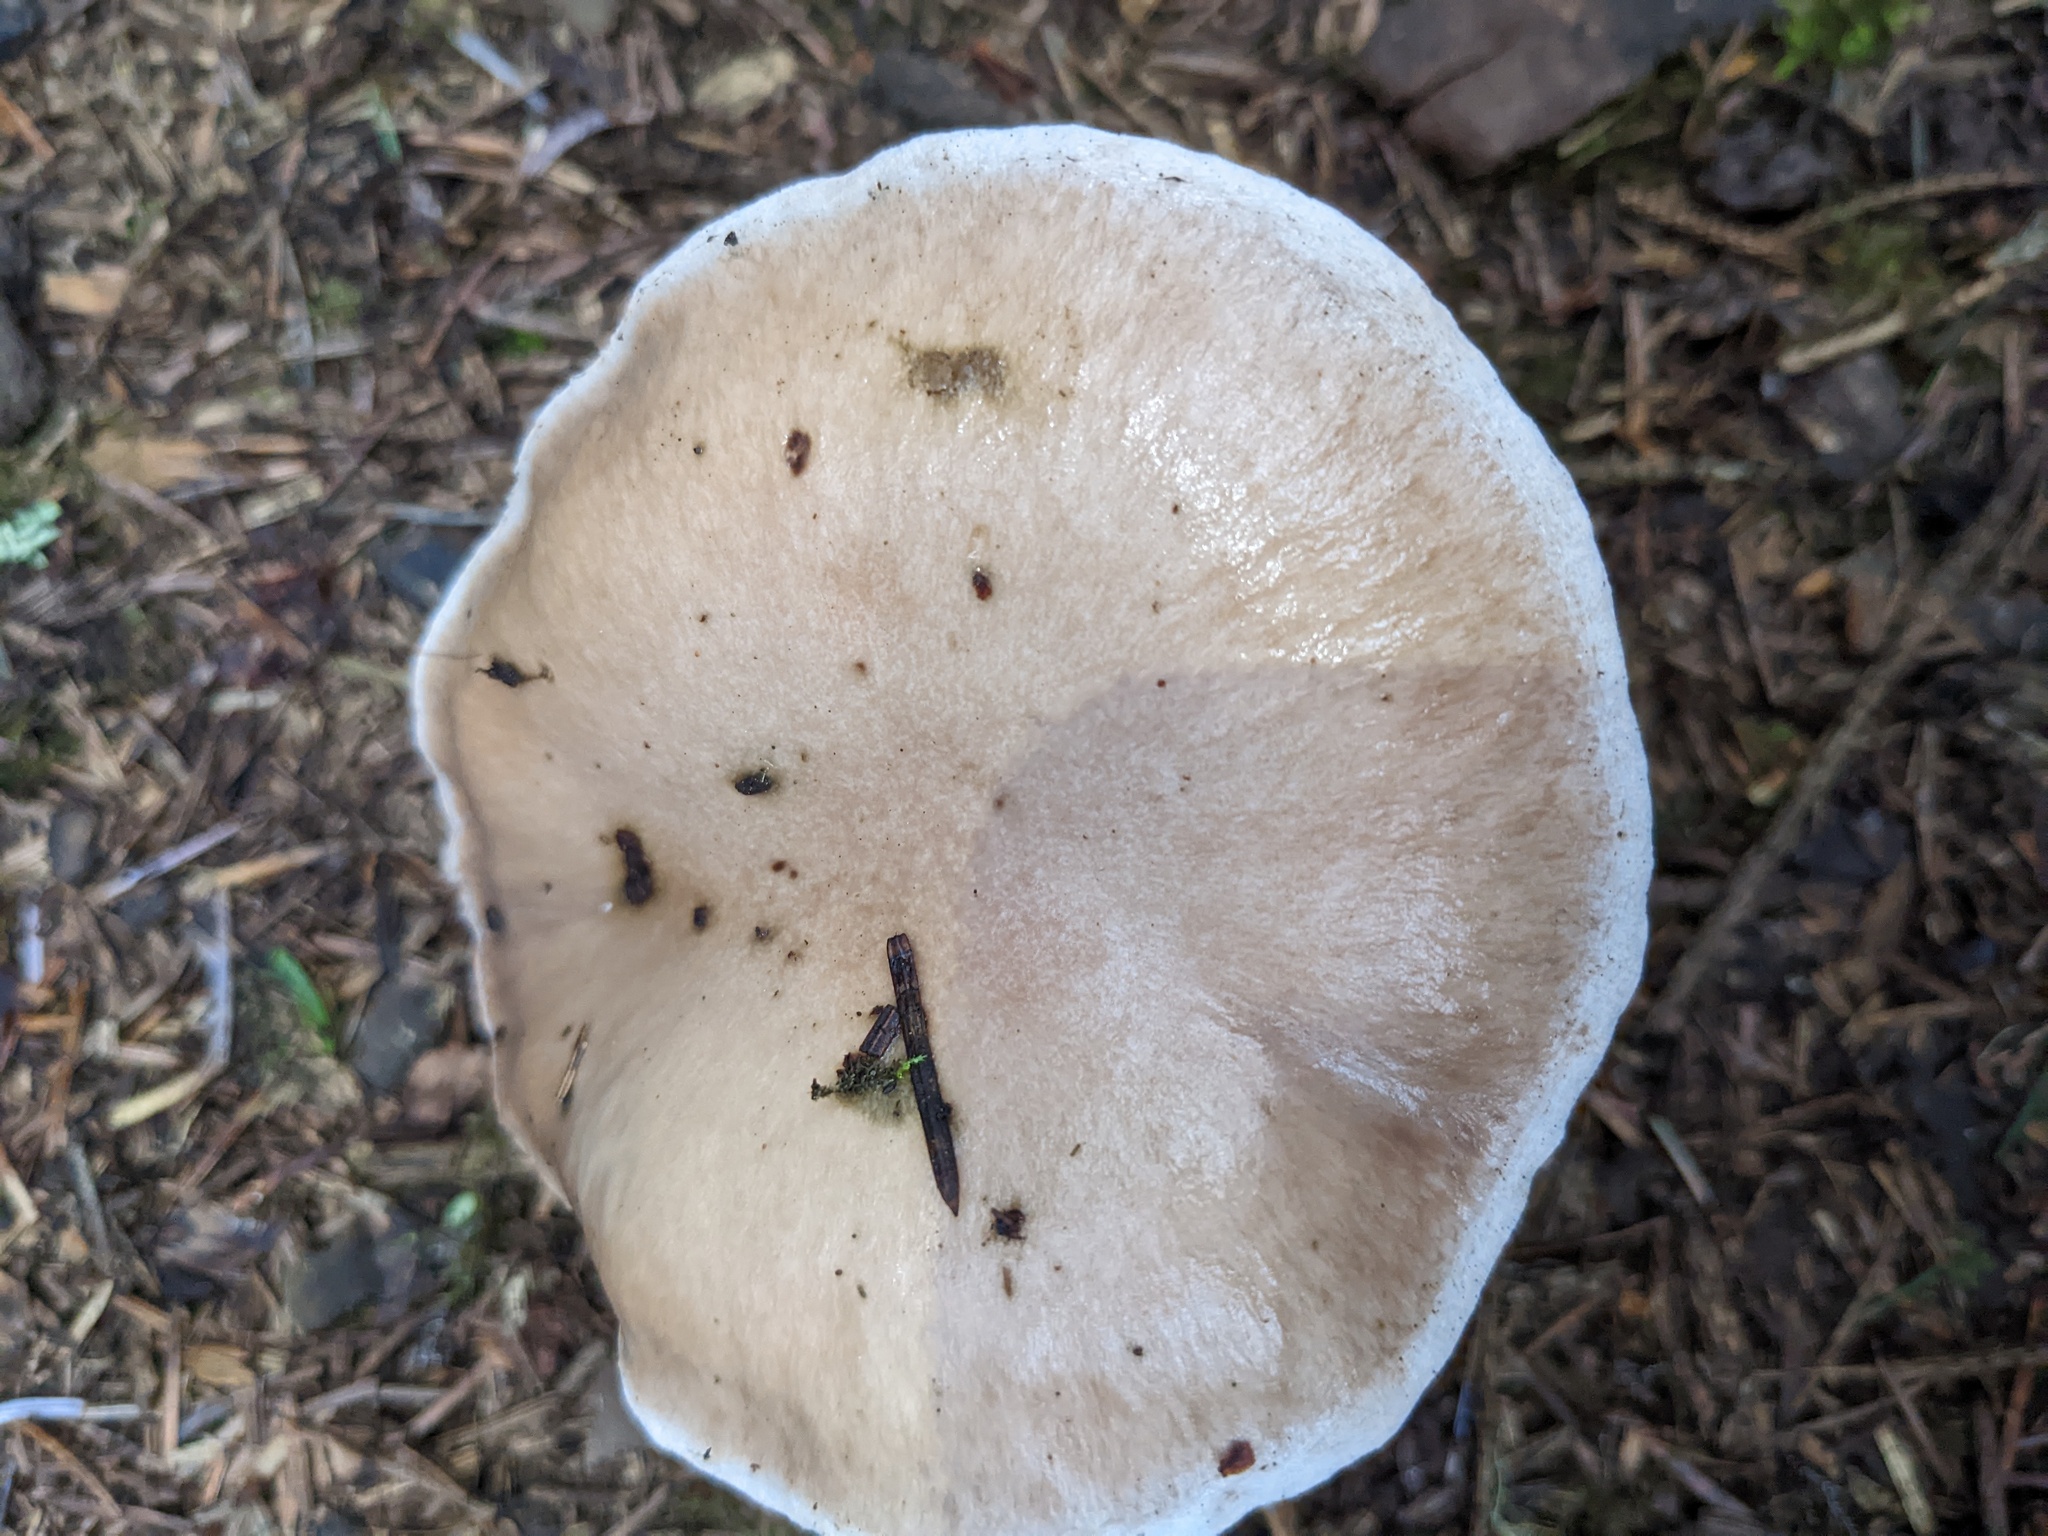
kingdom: Fungi
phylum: Basidiomycota
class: Agaricomycetes
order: Boletales
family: Gomphidiaceae
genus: Gomphidius
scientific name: Gomphidius glutinosus
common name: Slimy spike
